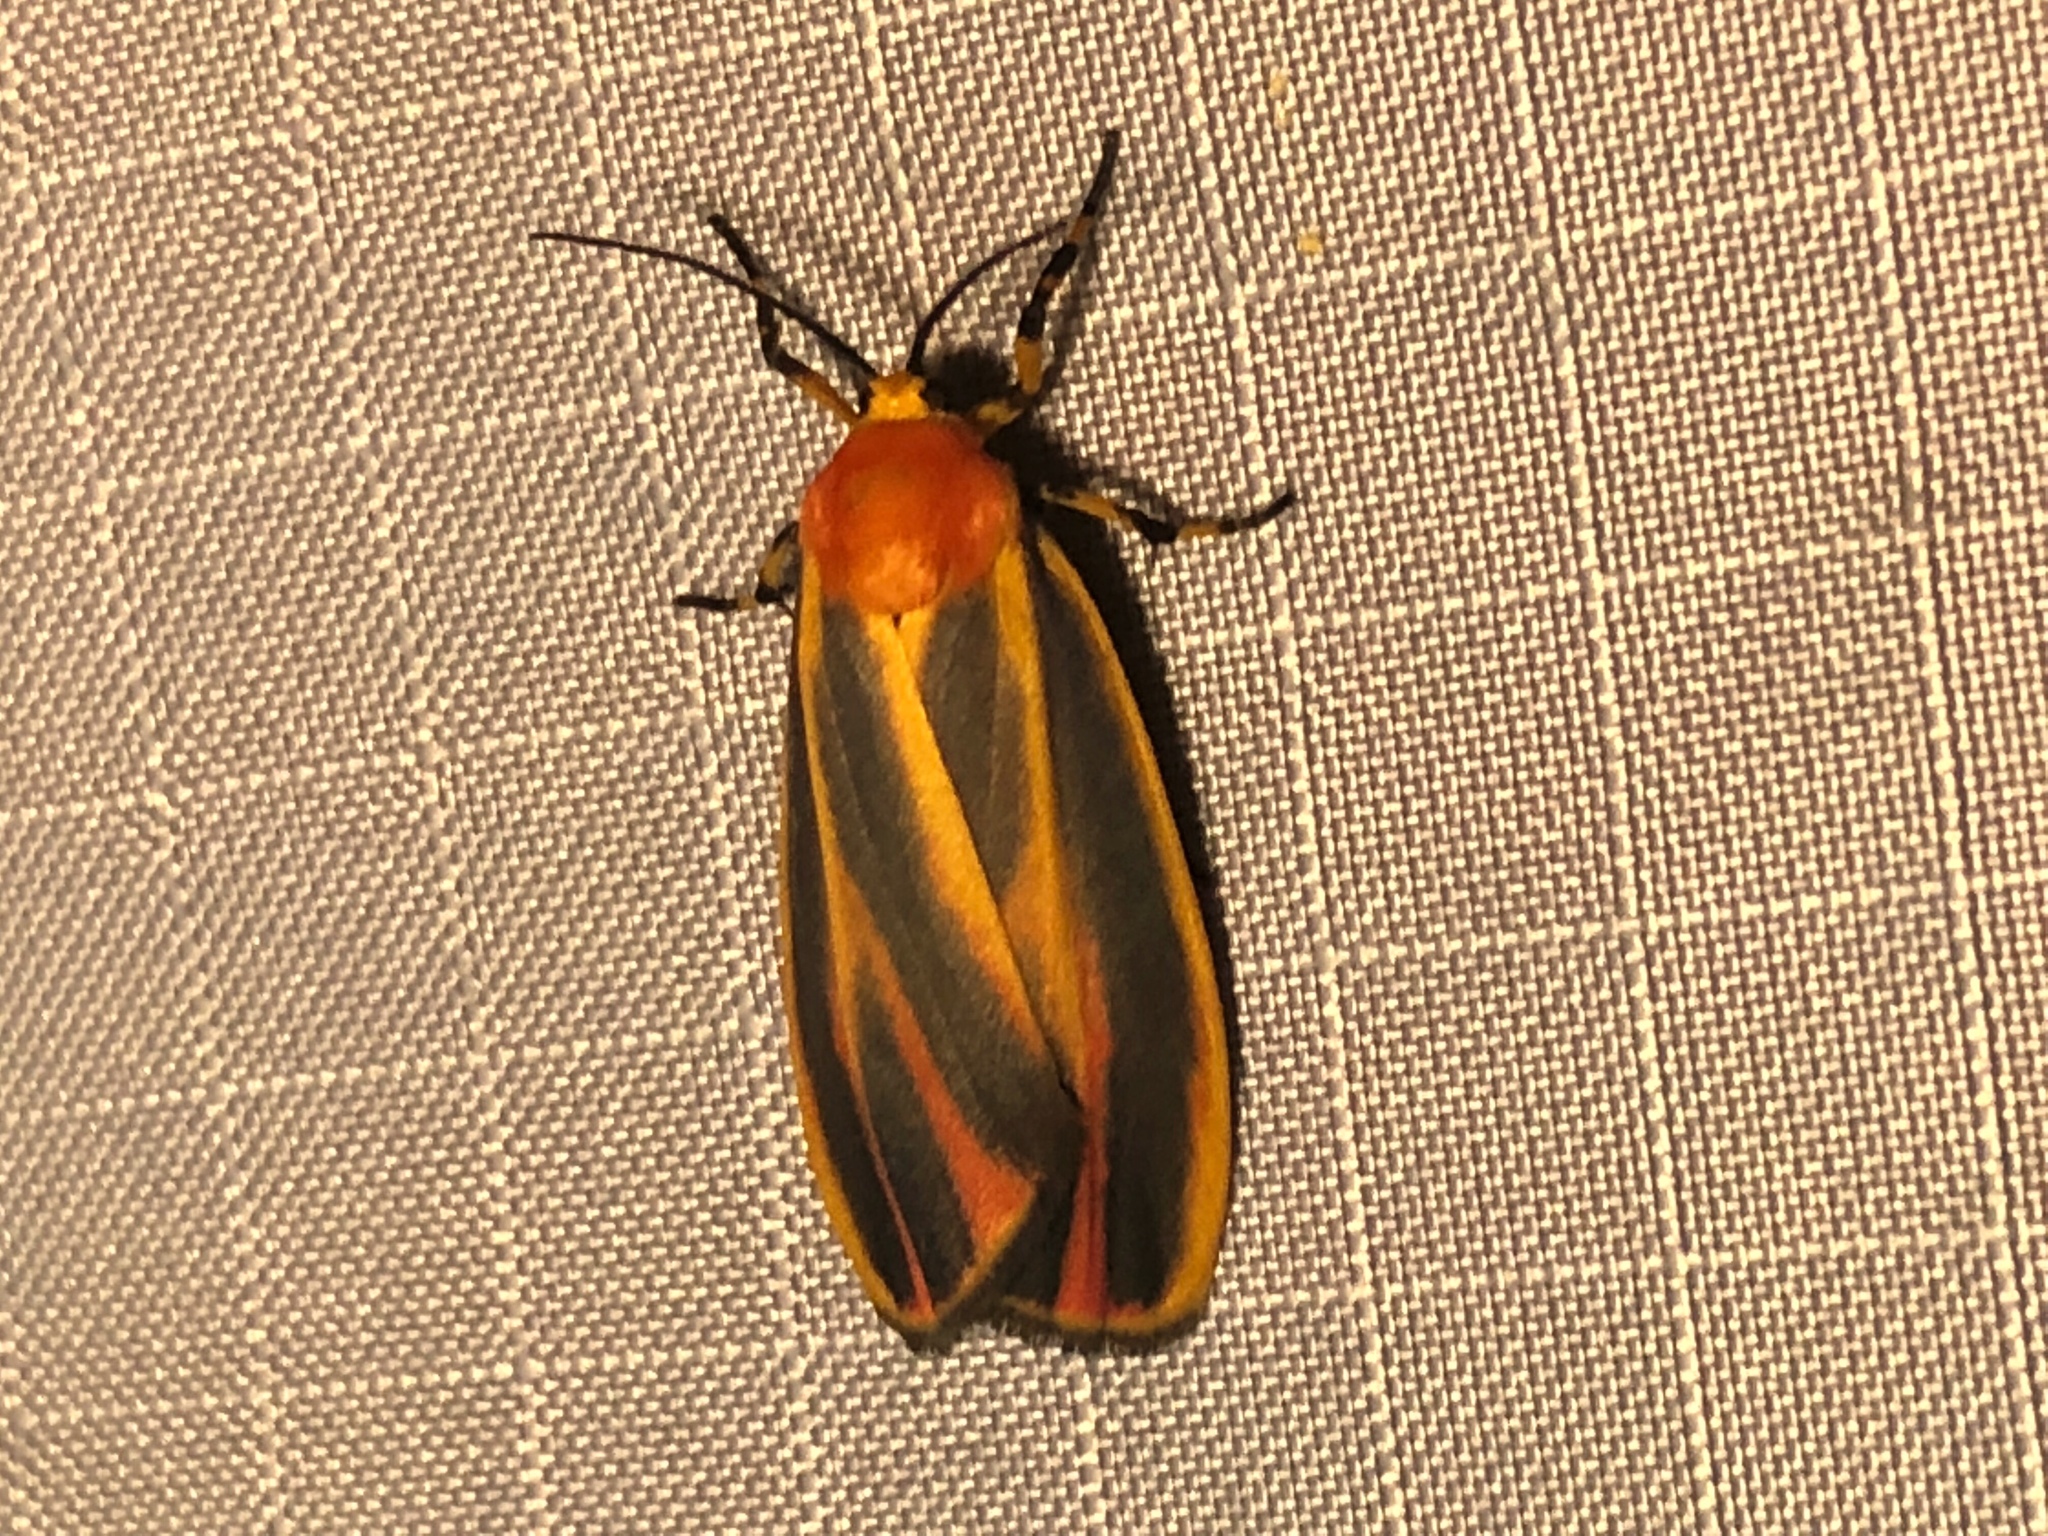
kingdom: Animalia
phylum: Arthropoda
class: Insecta
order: Lepidoptera
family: Erebidae
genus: Hypoprepia
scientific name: Hypoprepia fucosa
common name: Painted lichen moth
